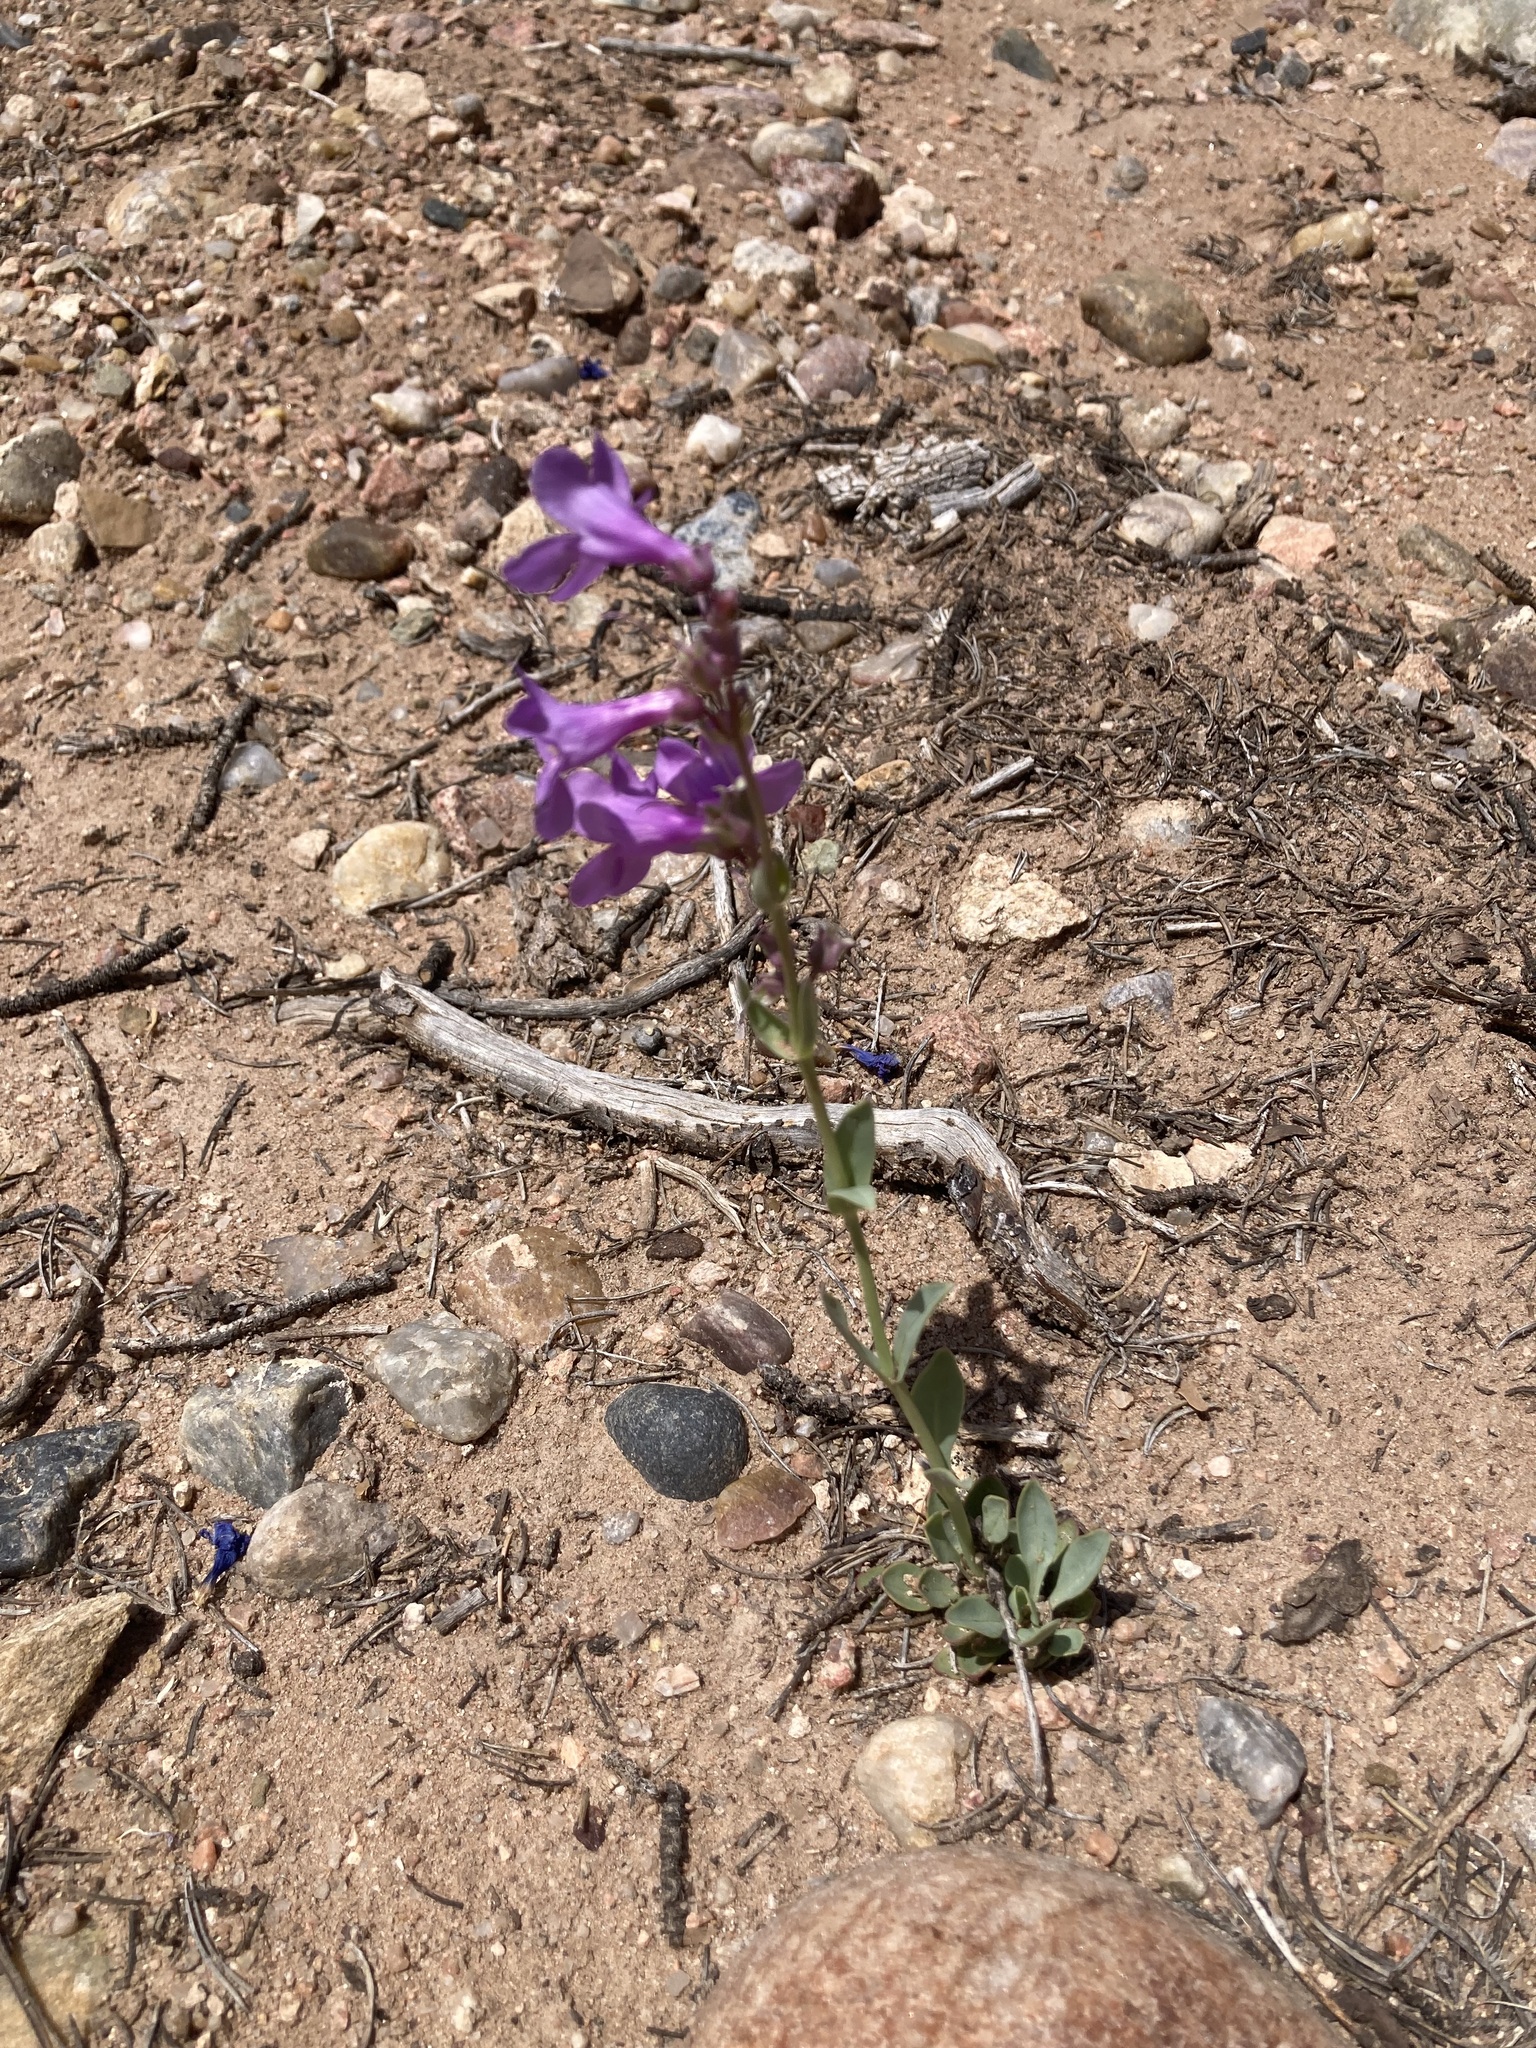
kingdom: Plantae
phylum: Tracheophyta
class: Magnoliopsida
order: Lamiales
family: Plantaginaceae
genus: Penstemon
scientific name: Penstemon secundiflorus
